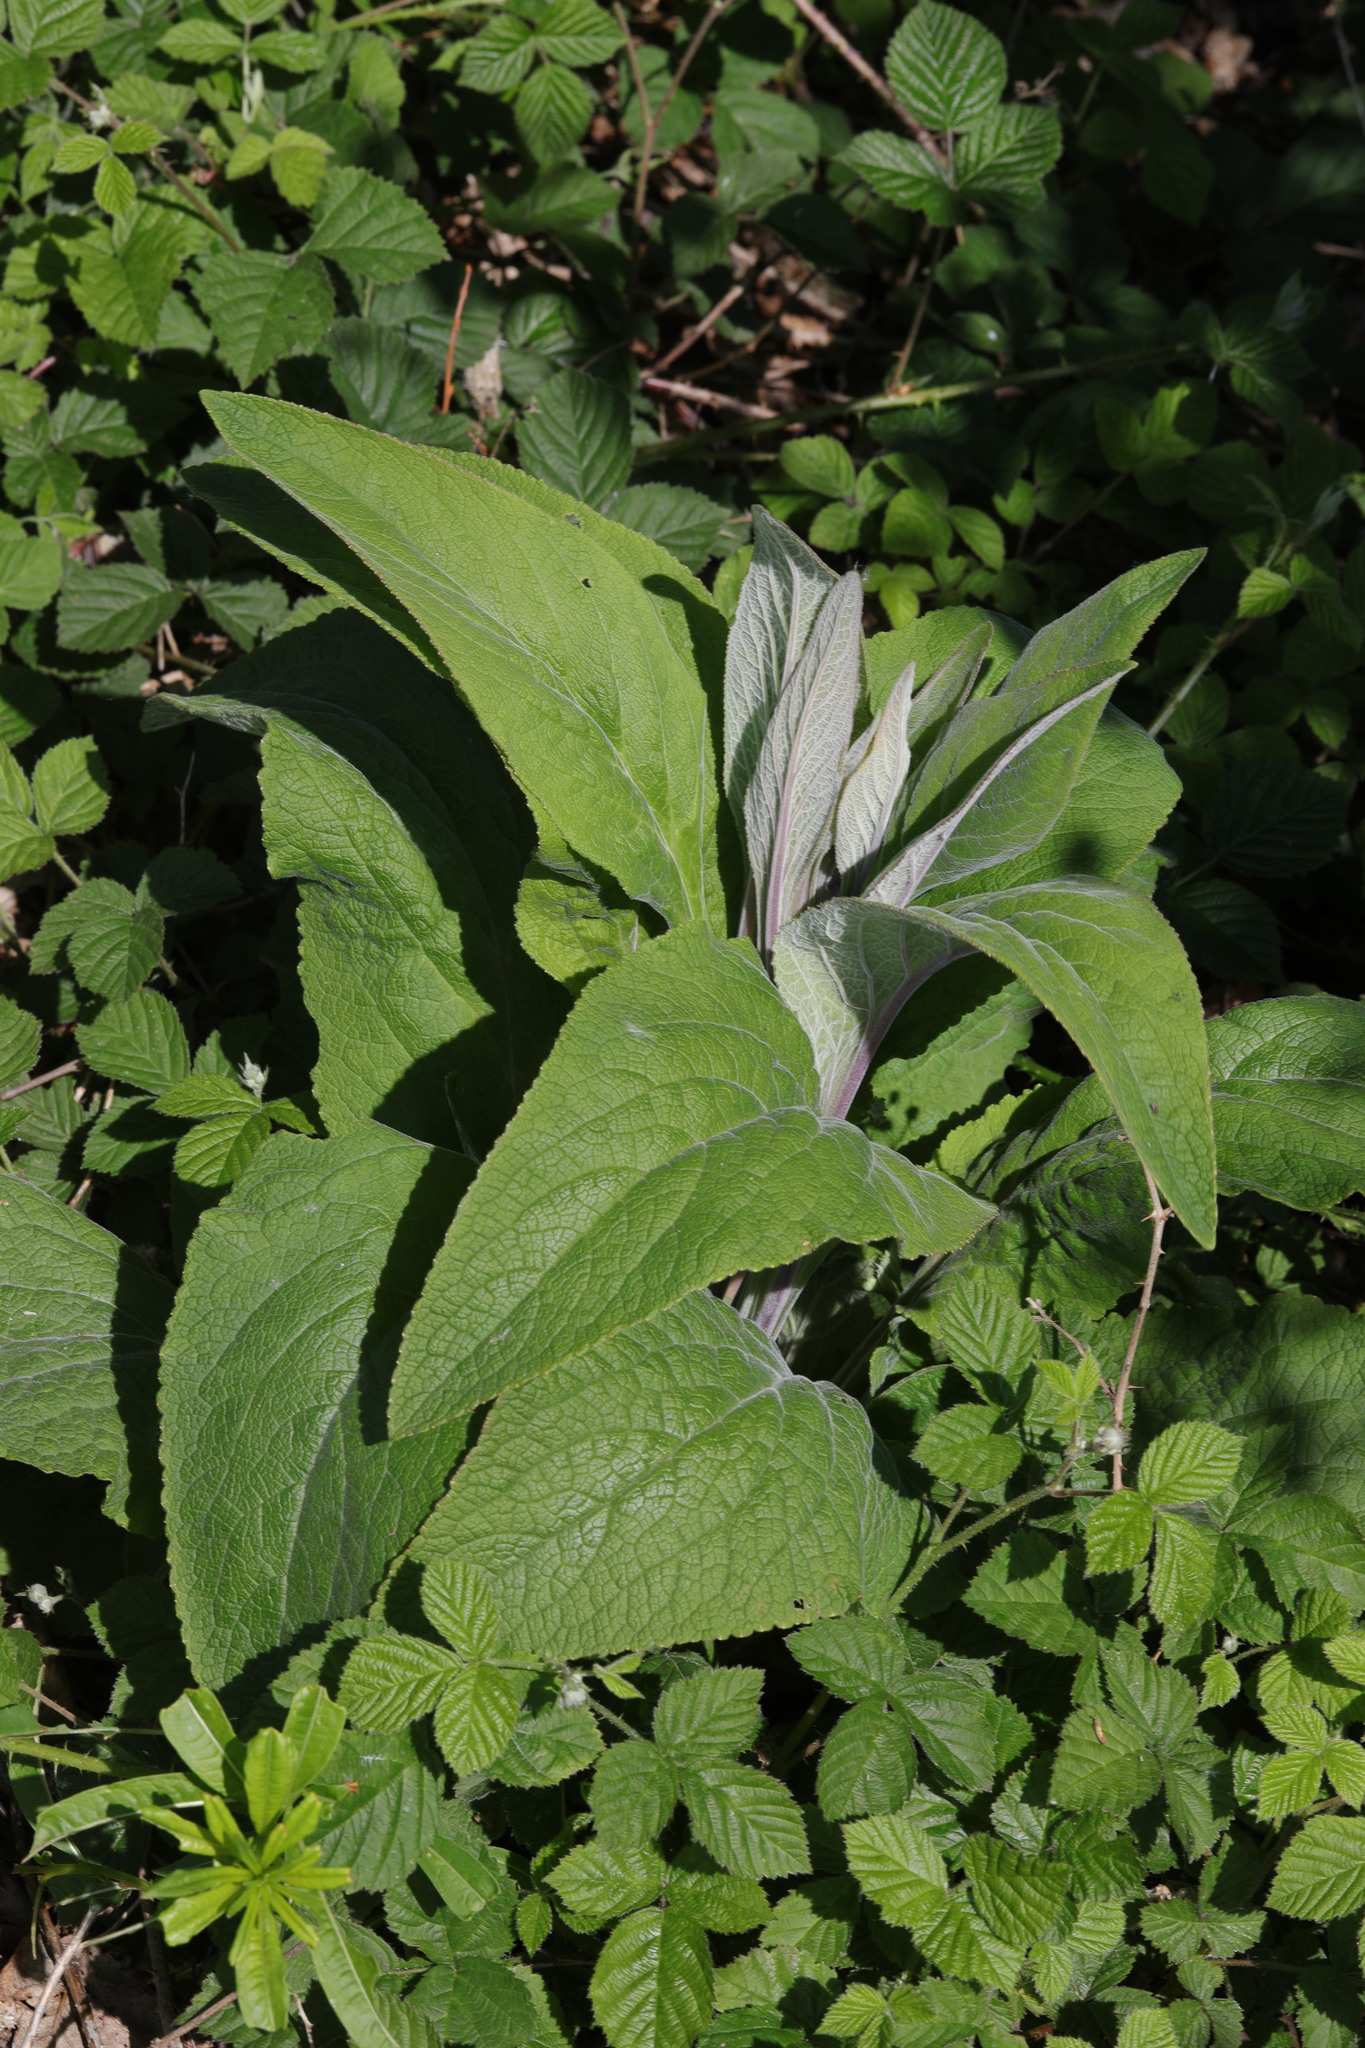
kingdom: Plantae
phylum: Tracheophyta
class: Magnoliopsida
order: Lamiales
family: Plantaginaceae
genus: Digitalis
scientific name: Digitalis purpurea
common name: Foxglove
